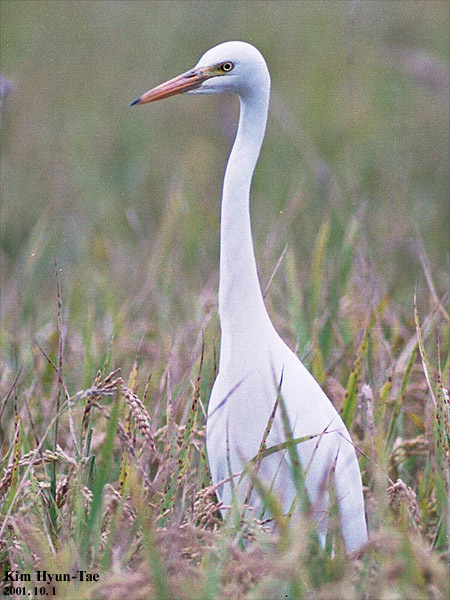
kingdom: Animalia
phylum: Chordata
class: Aves
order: Pelecaniformes
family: Ardeidae
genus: Egretta
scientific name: Egretta intermedia
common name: Intermediate egret
